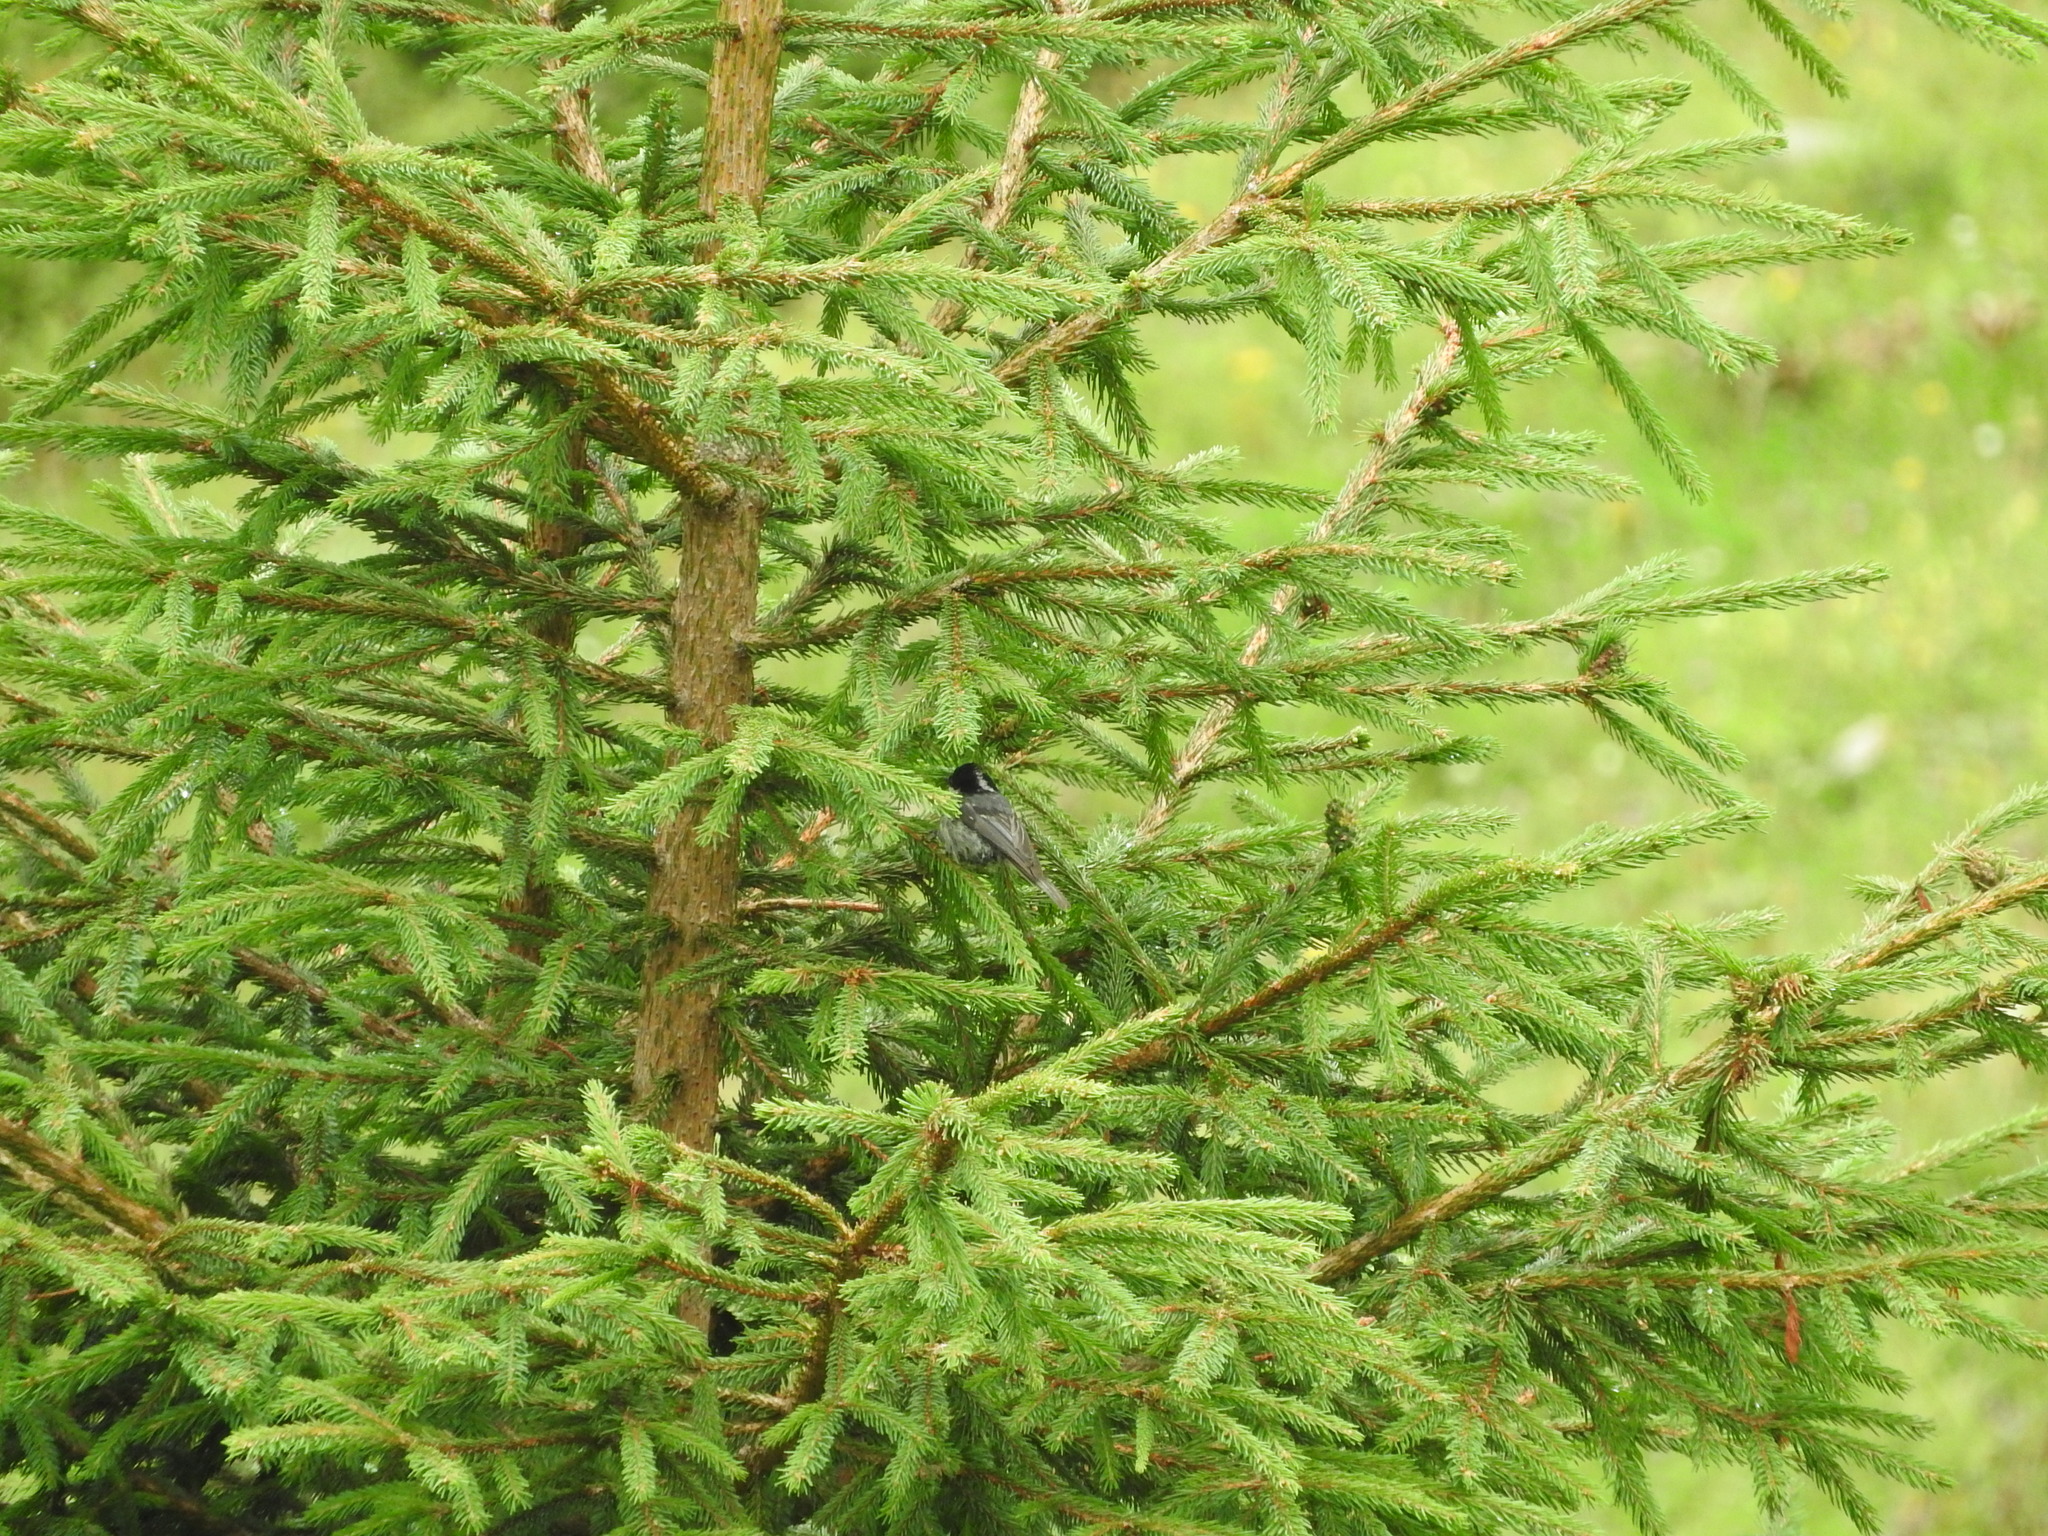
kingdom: Animalia
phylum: Chordata
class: Aves
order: Passeriformes
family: Paridae
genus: Periparus
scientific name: Periparus ater
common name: Coal tit
